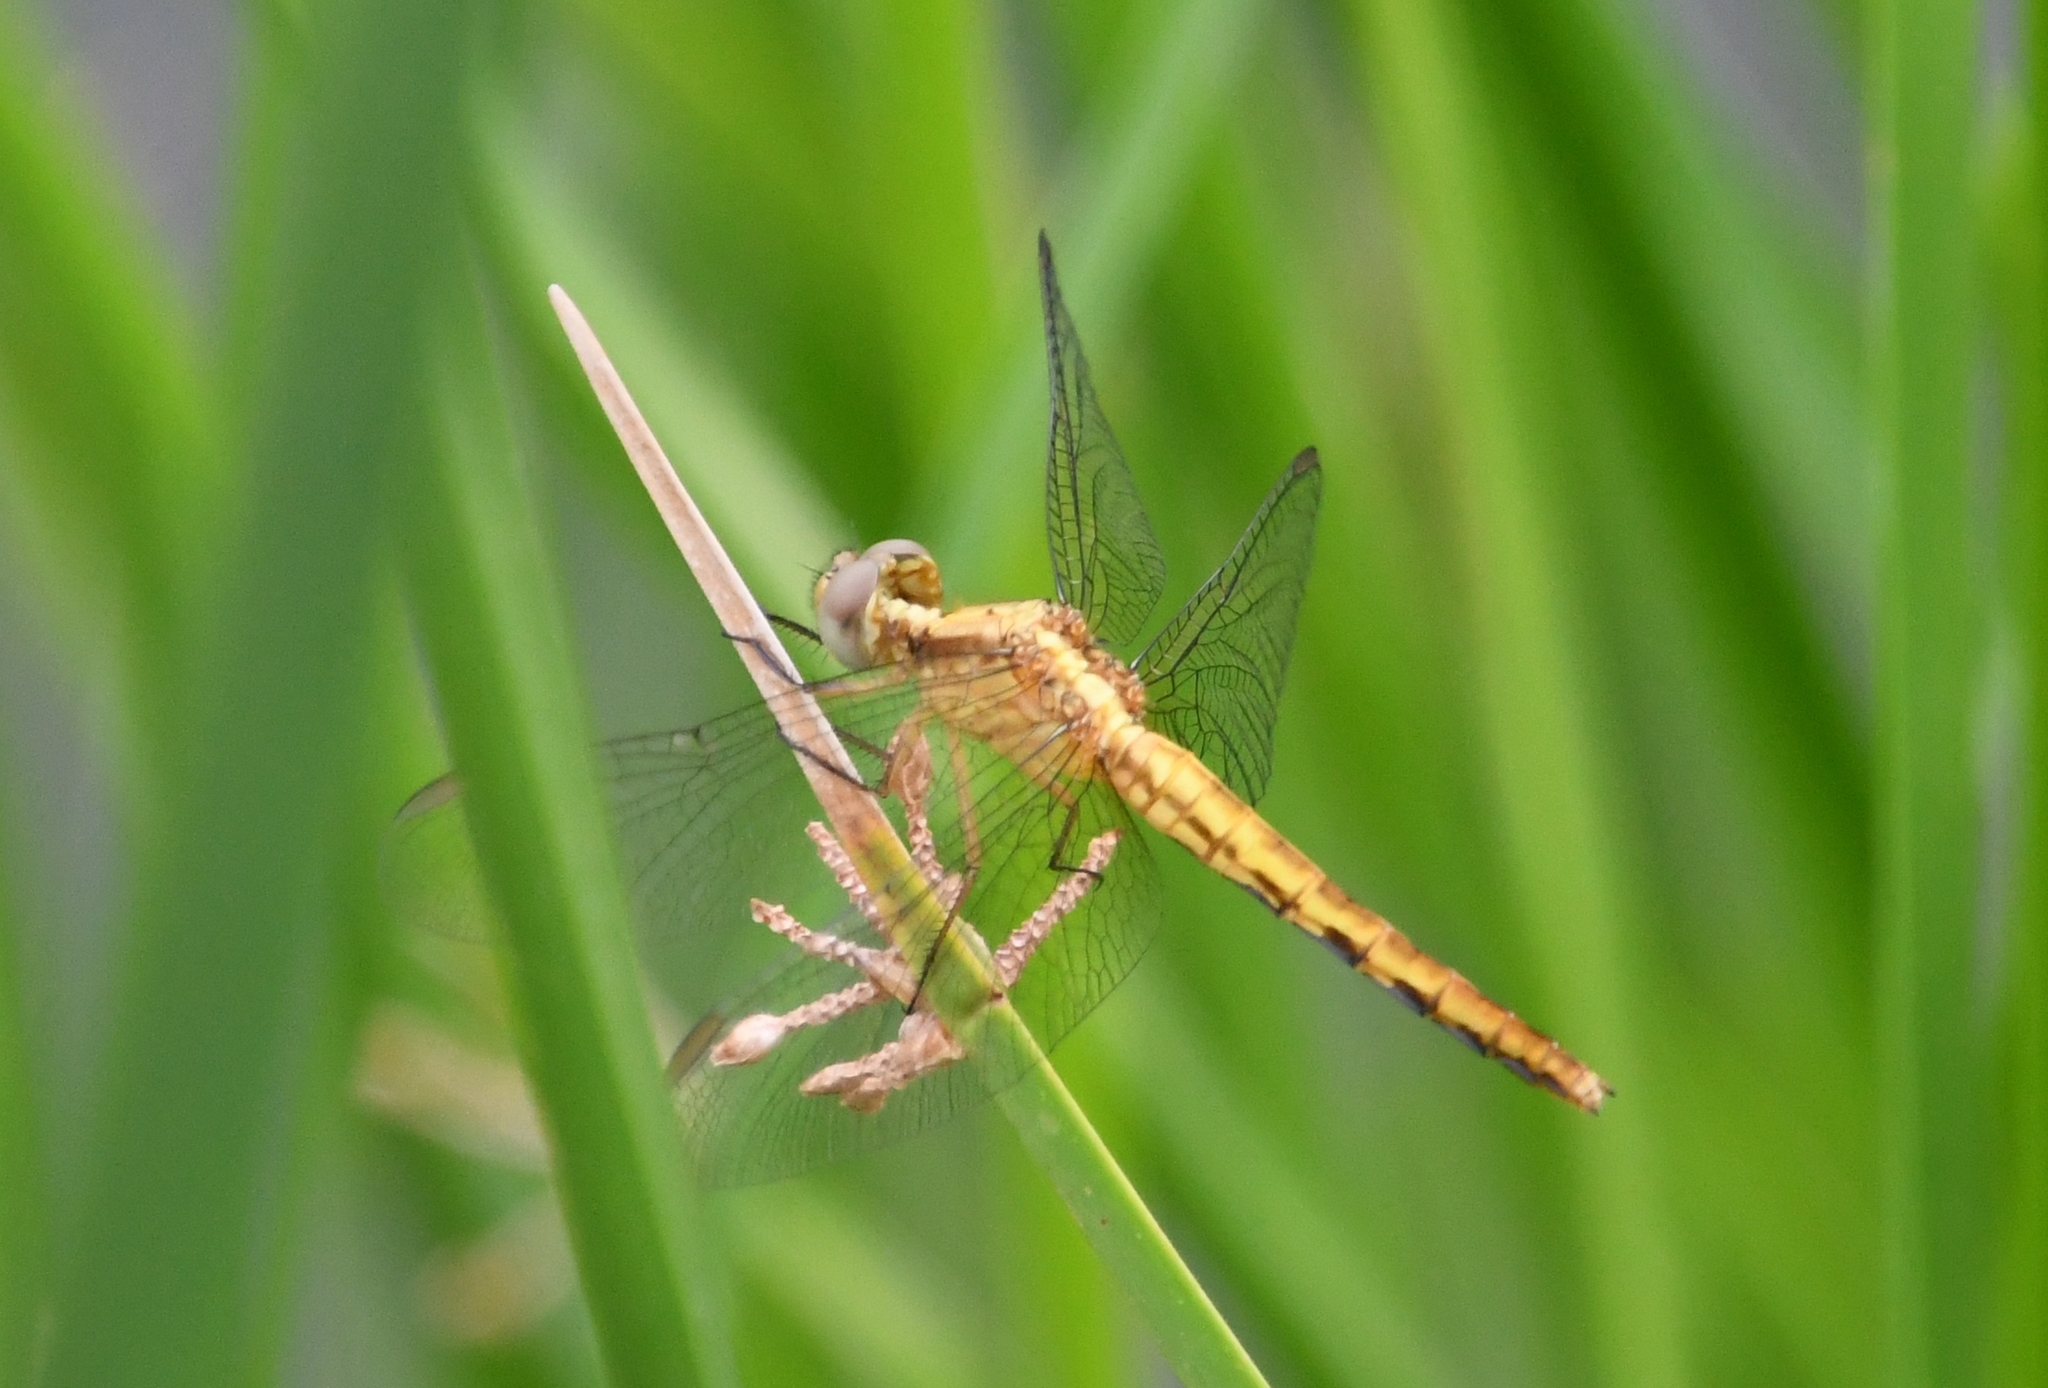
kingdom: Animalia
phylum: Arthropoda
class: Insecta
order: Odonata
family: Libellulidae
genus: Erythrodiplax
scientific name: Erythrodiplax basifusca
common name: Plateau dragonlet
